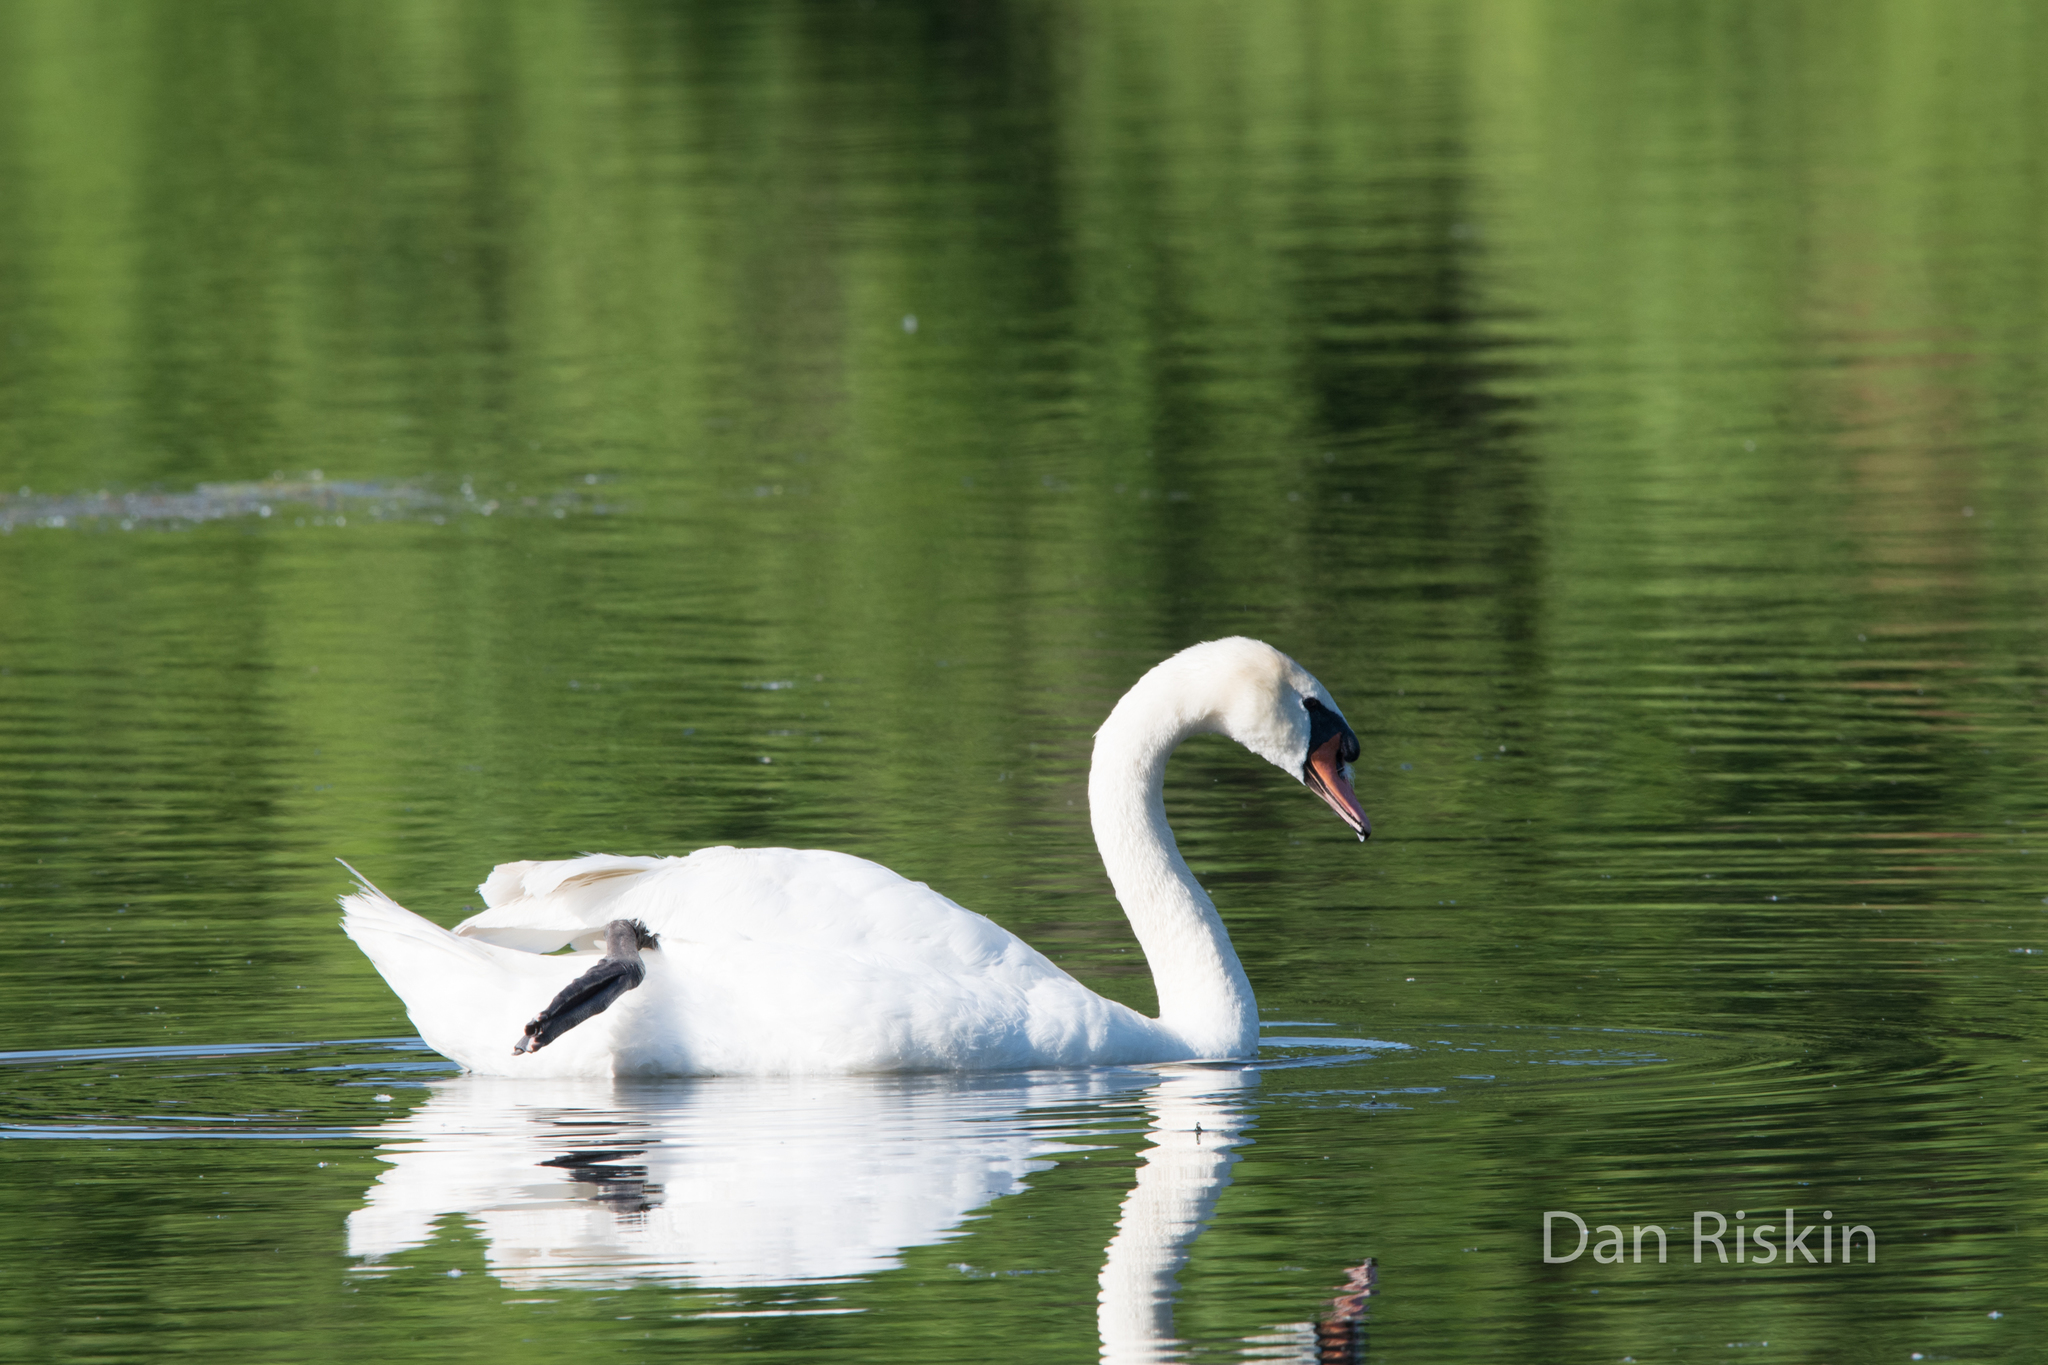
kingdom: Animalia
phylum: Chordata
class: Aves
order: Anseriformes
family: Anatidae
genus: Cygnus
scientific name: Cygnus olor
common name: Mute swan
